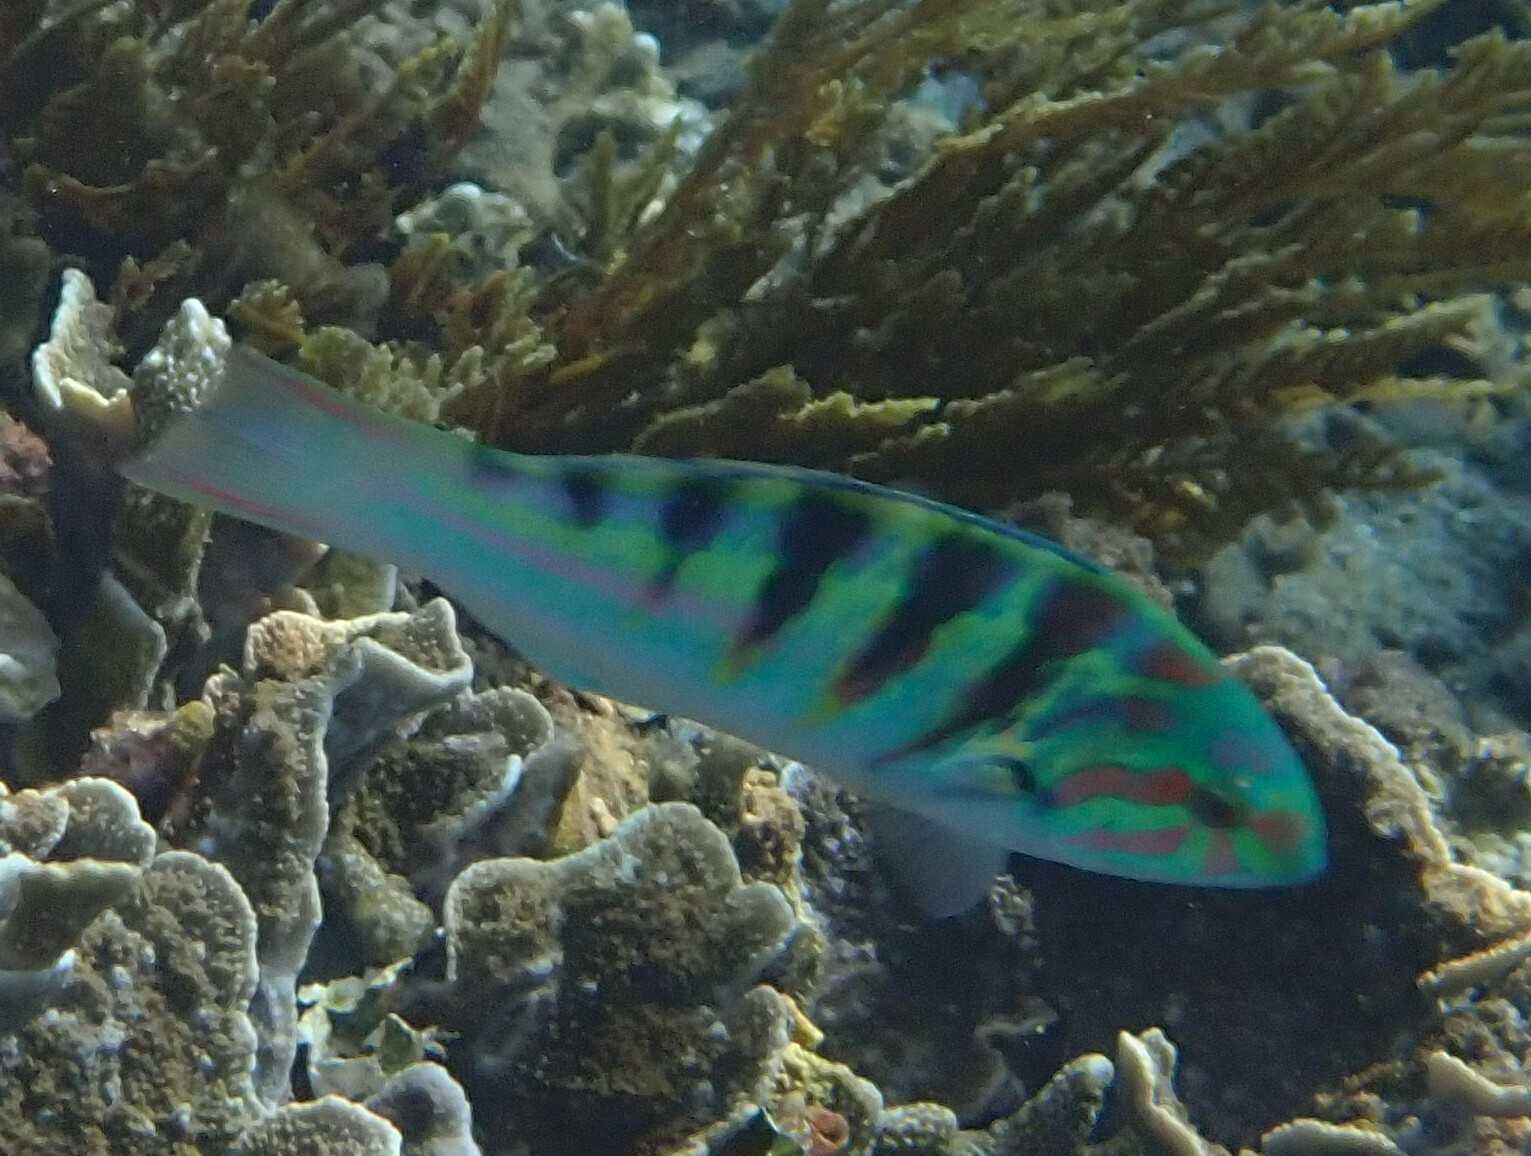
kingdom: Animalia
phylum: Chordata
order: Perciformes
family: Labridae
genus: Thalassoma
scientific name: Thalassoma hardwicke
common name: Sixbar wrasse
